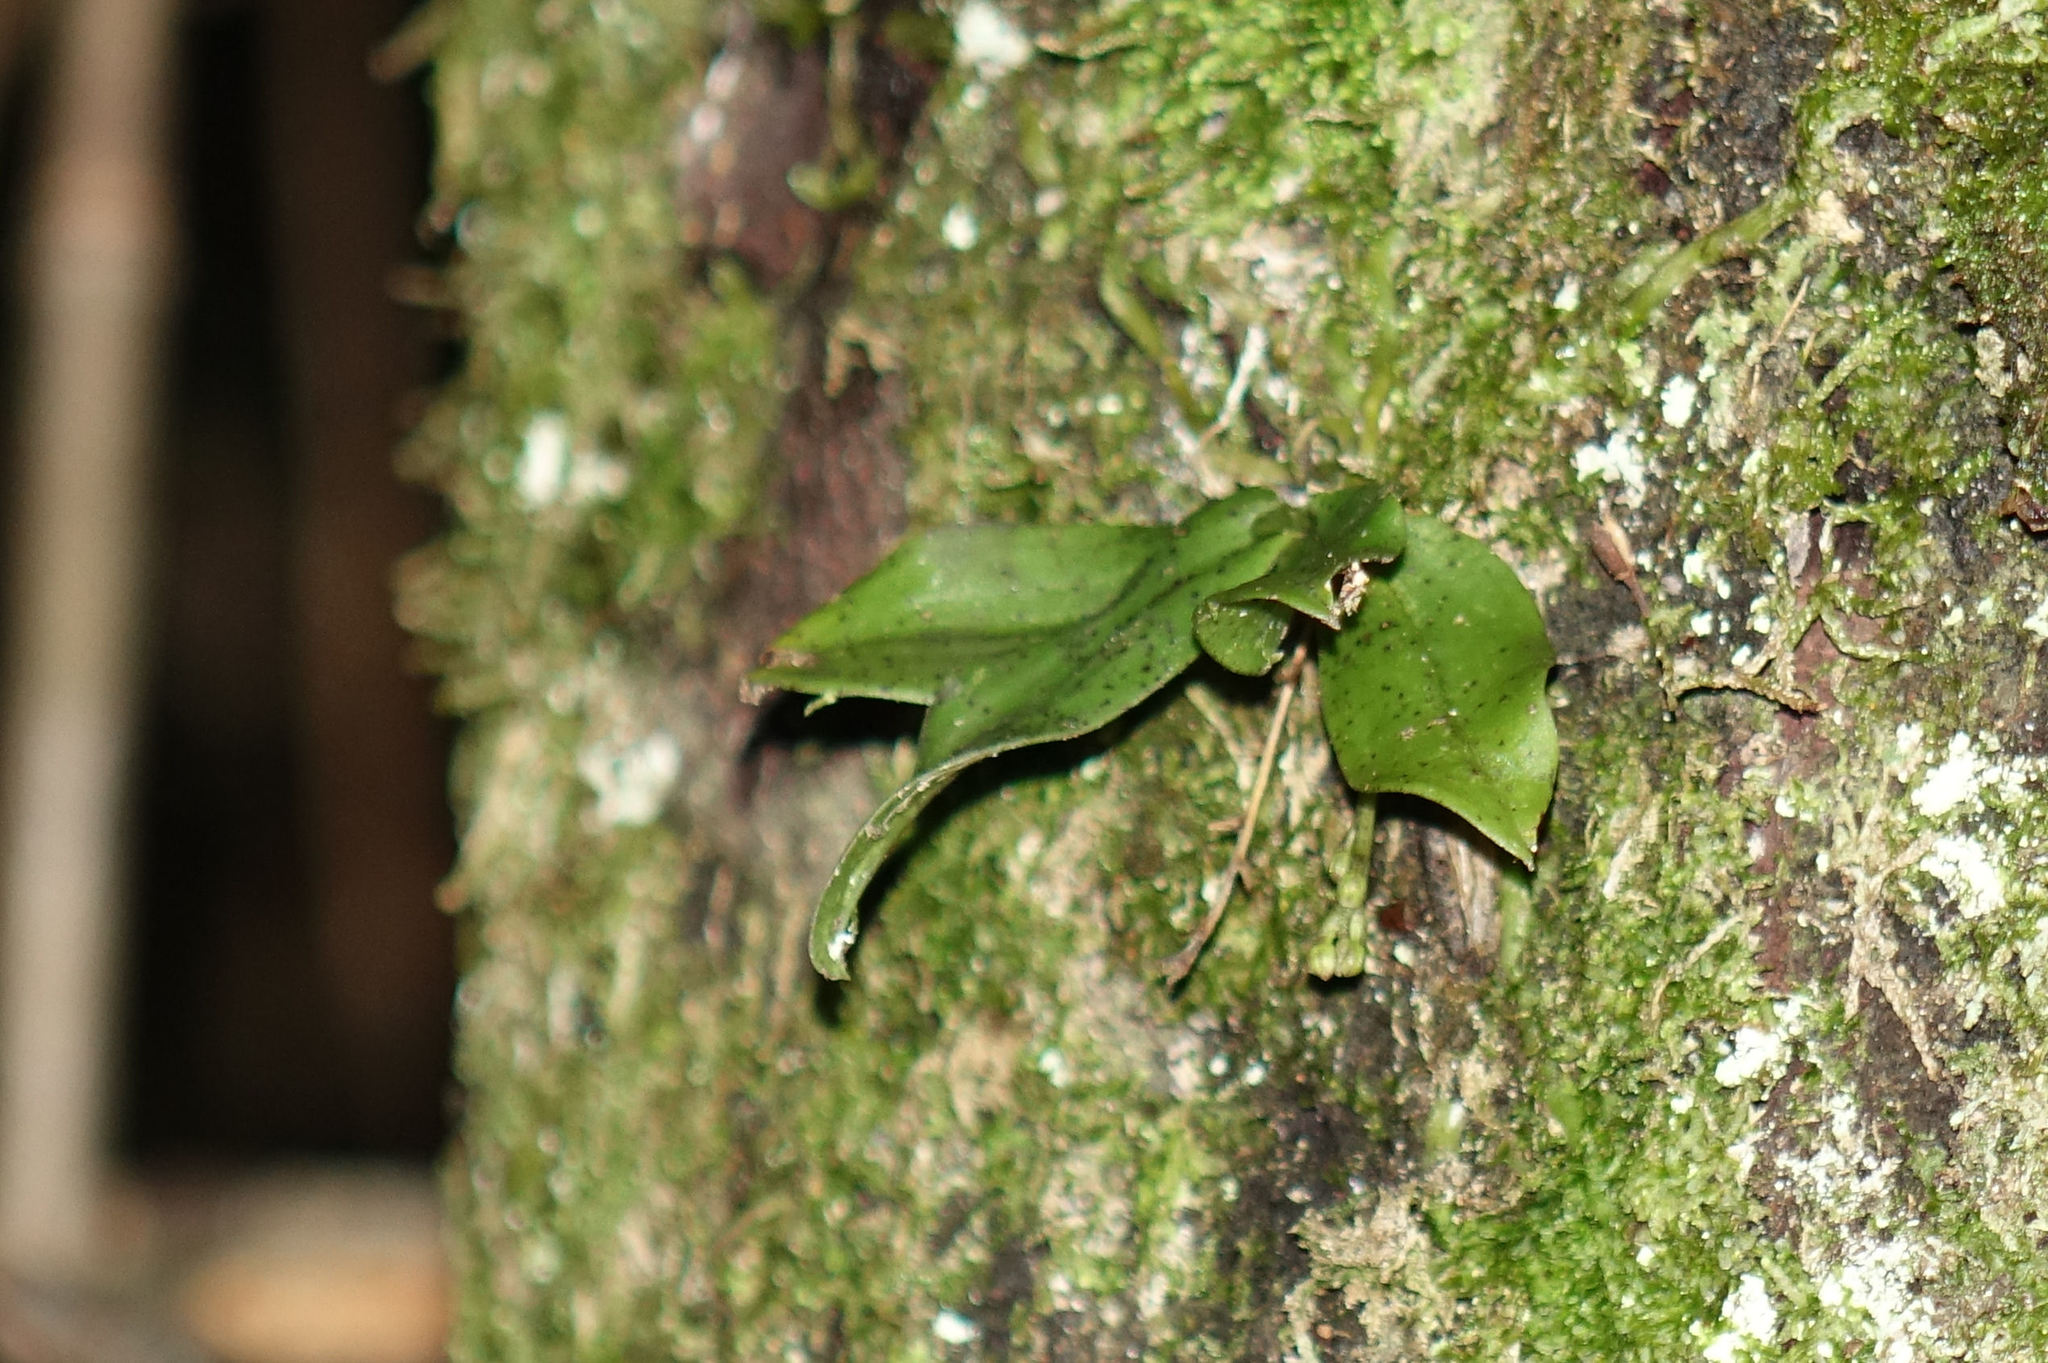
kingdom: Plantae
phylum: Tracheophyta
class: Liliopsida
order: Asparagales
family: Orchidaceae
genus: Drymoanthus
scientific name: Drymoanthus flavus
